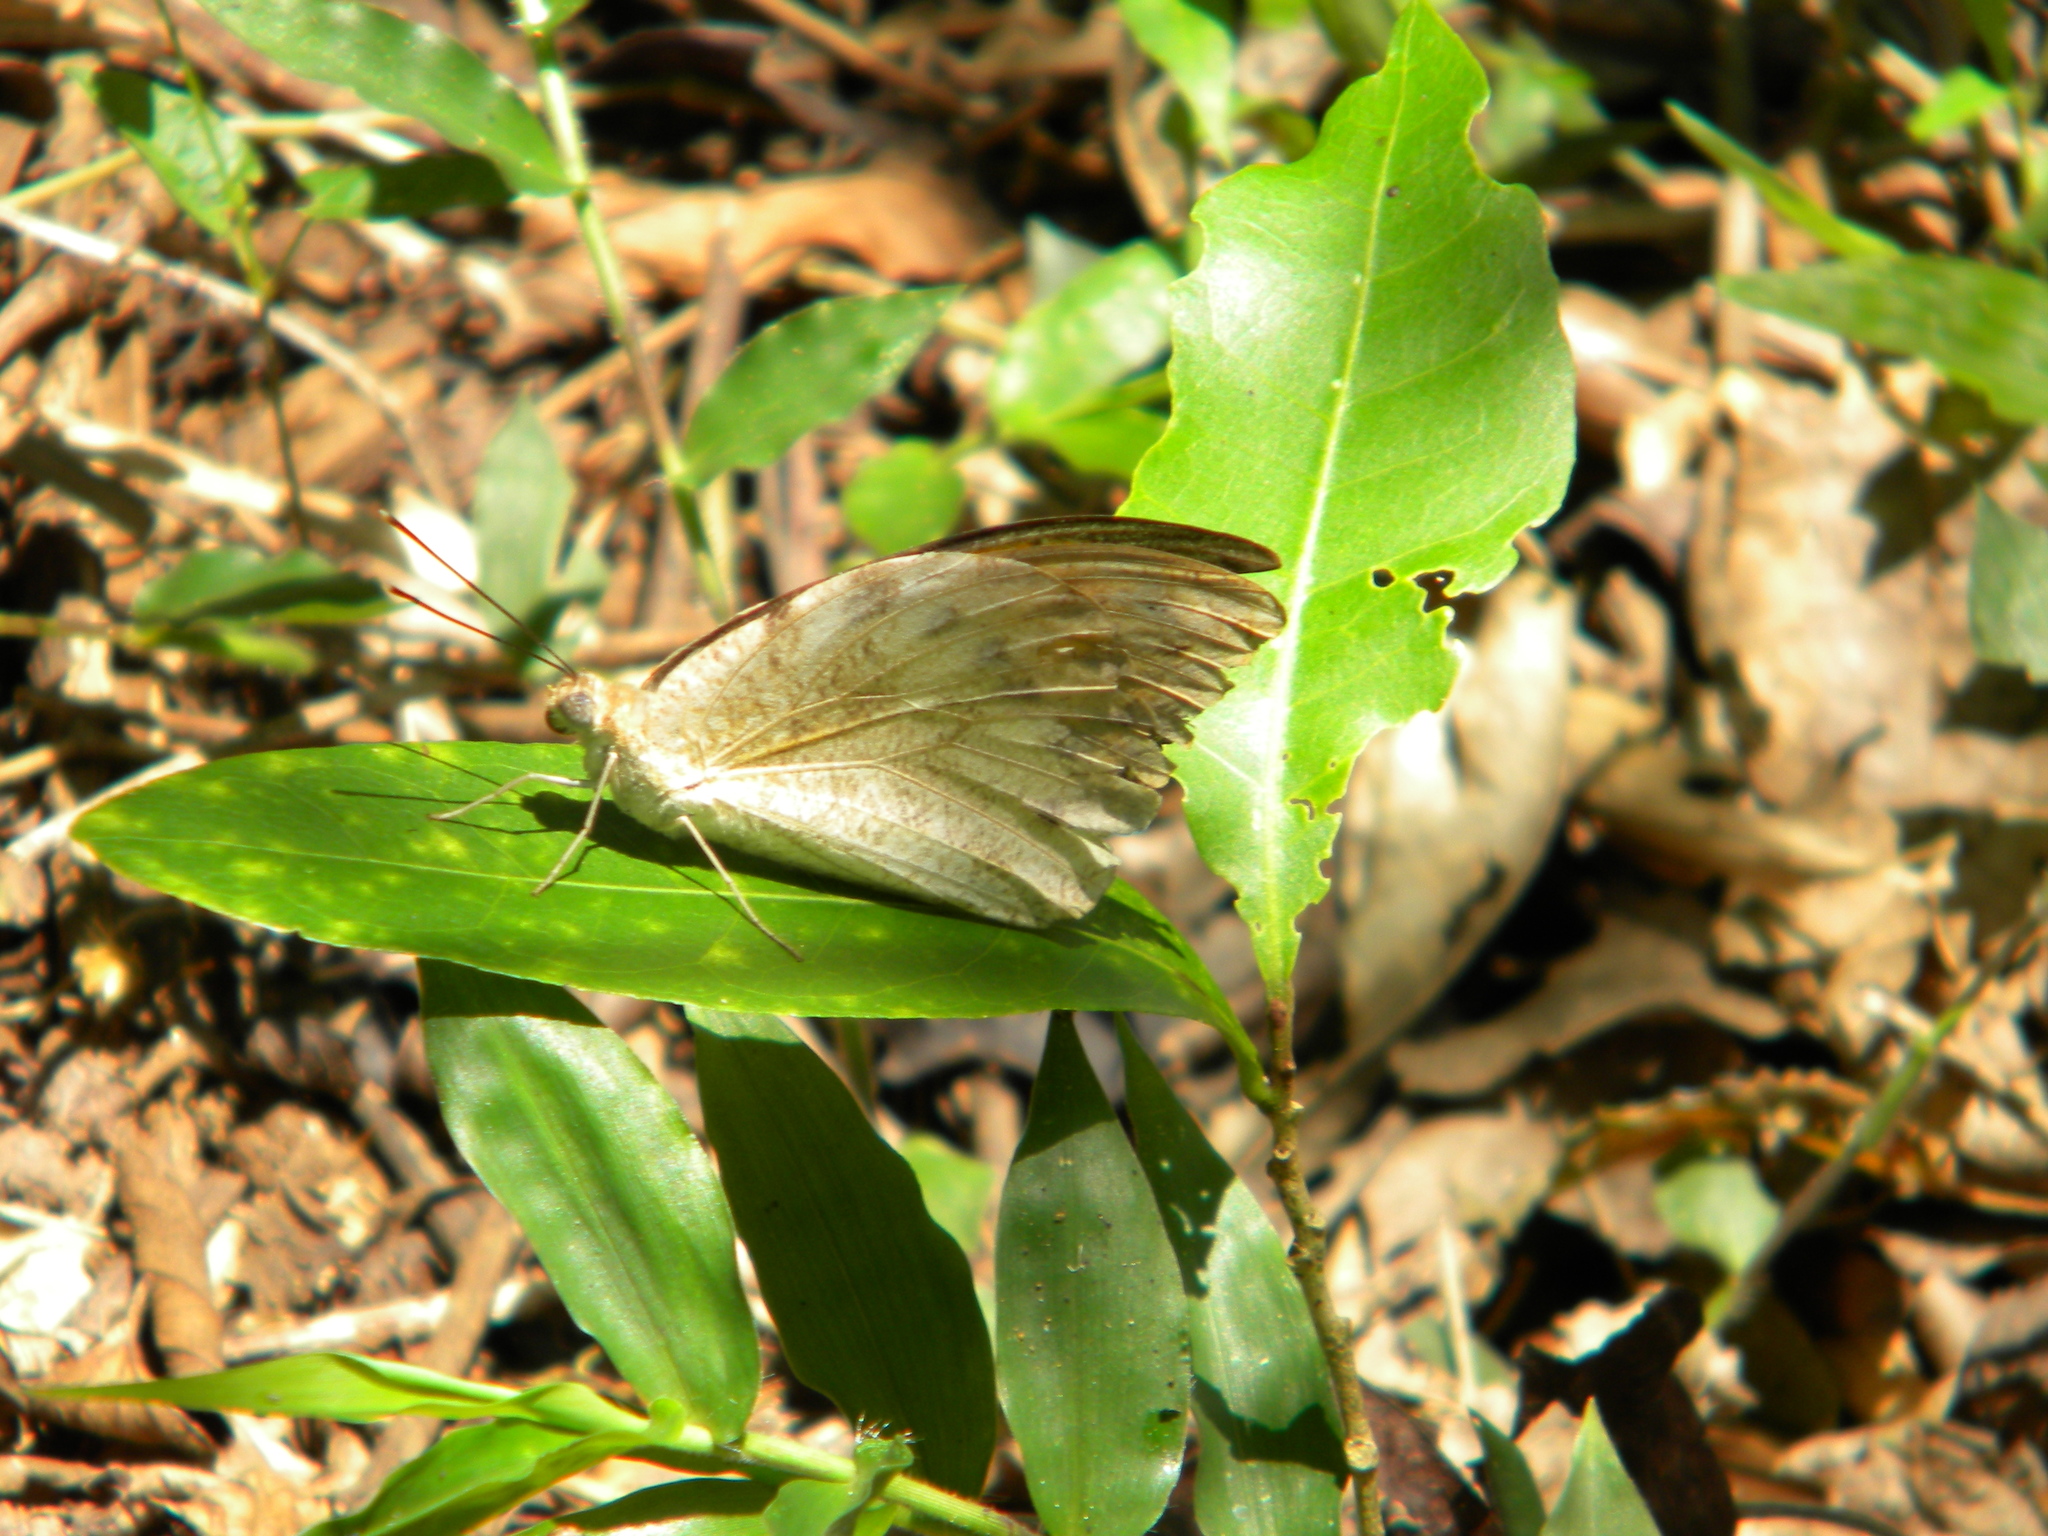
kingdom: Animalia
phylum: Arthropoda
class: Insecta
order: Lepidoptera
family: Pieridae
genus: Hebomoia
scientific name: Hebomoia glaucippe
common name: Great orange tip
